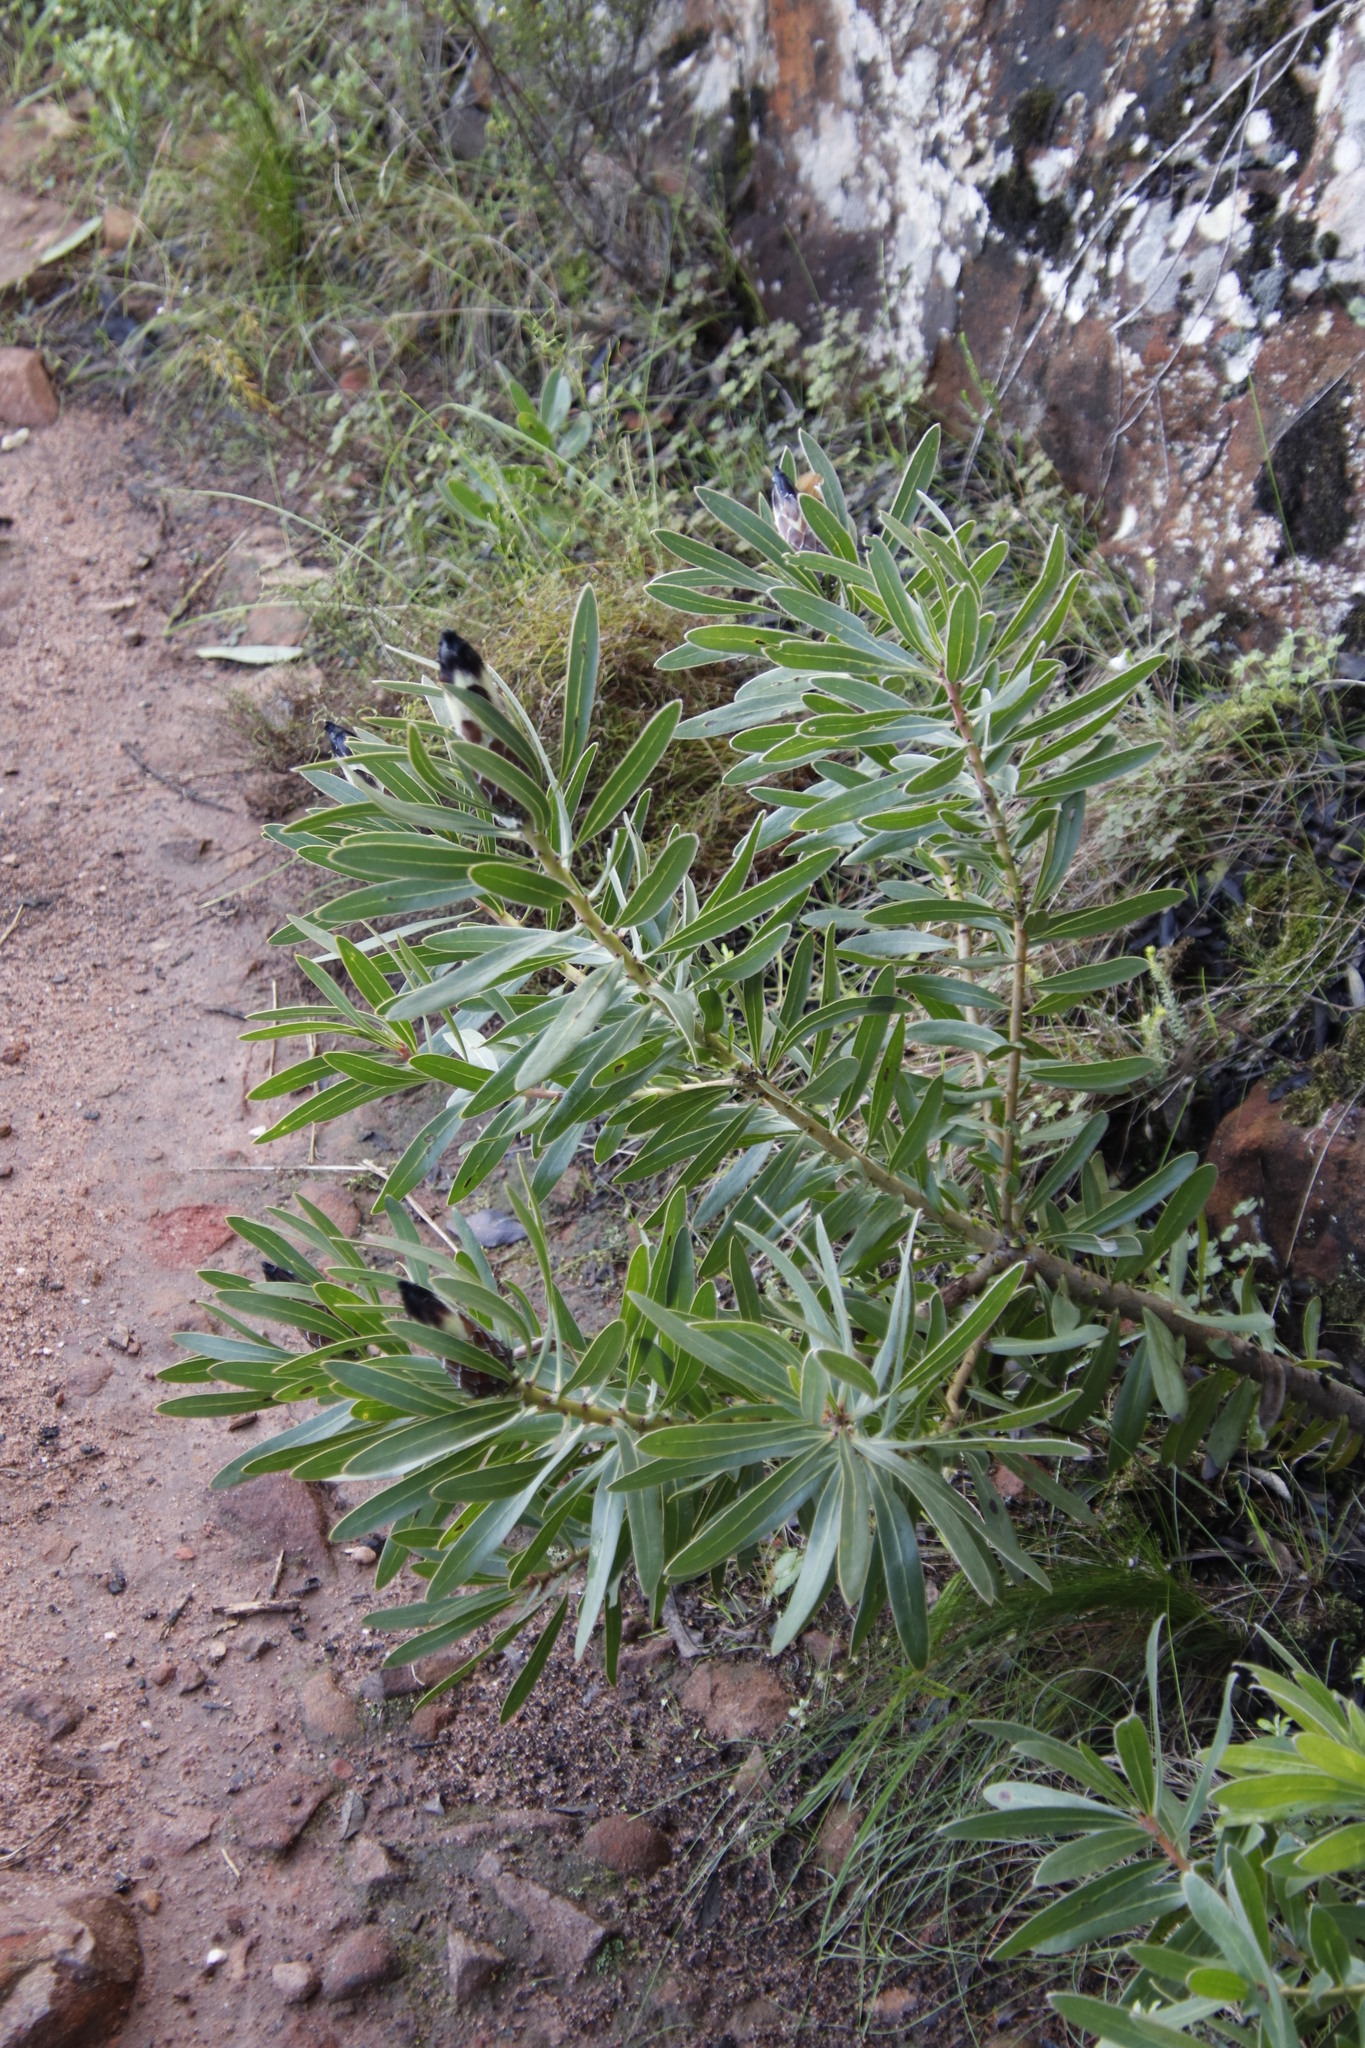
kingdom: Plantae
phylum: Tracheophyta
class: Magnoliopsida
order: Proteales
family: Proteaceae
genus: Protea
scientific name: Protea lepidocarpodendron
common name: Black-bearded protea
